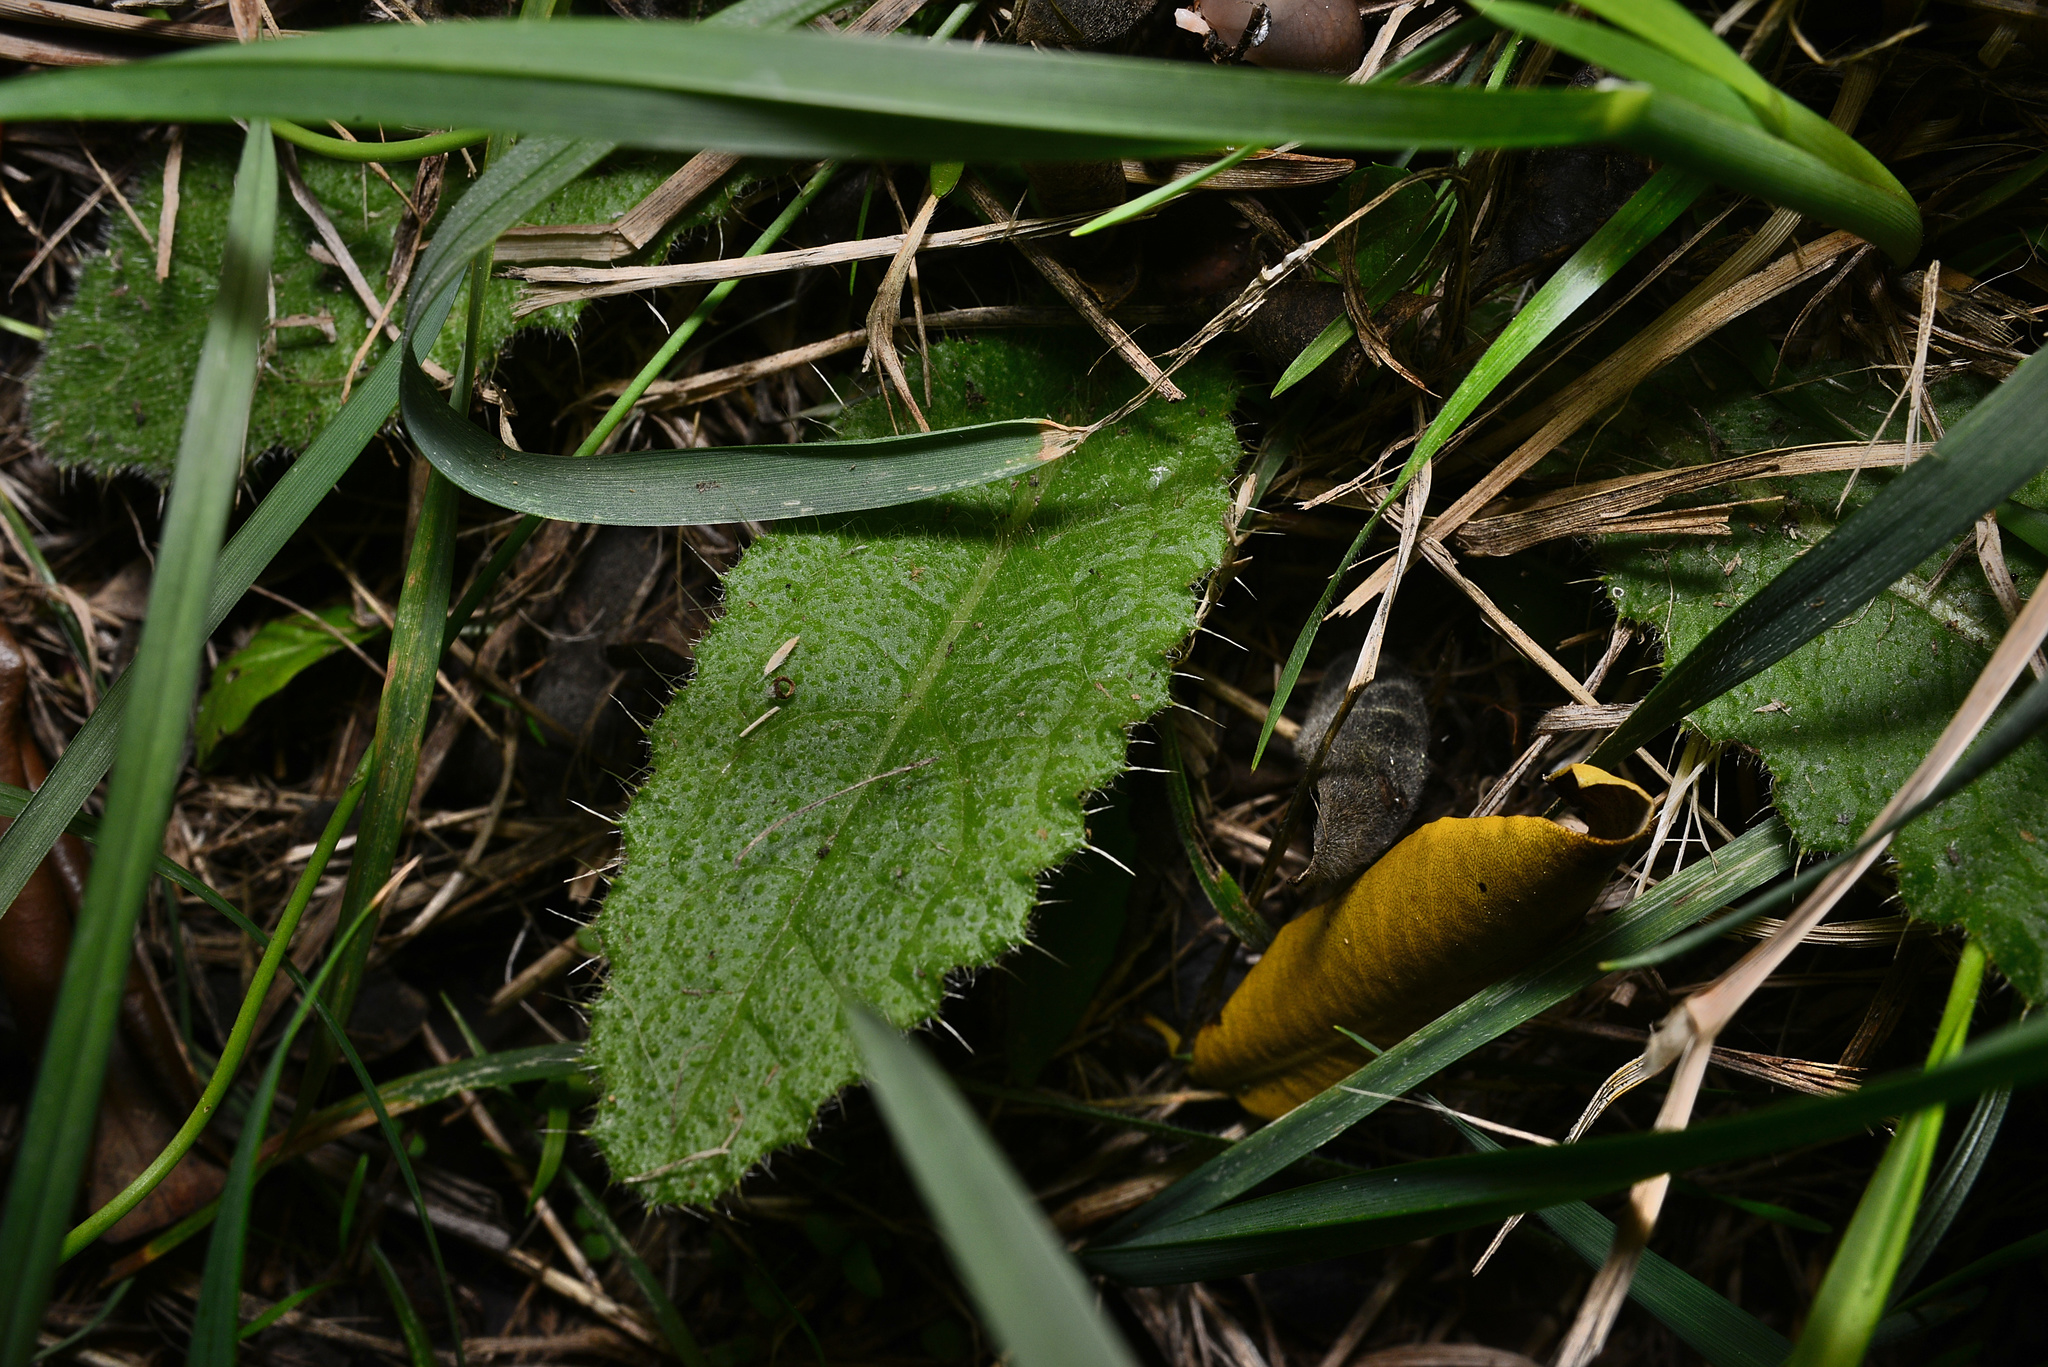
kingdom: Plantae
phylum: Tracheophyta
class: Magnoliopsida
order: Asterales
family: Asteraceae
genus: Cirsium
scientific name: Cirsium vulgare
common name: Bull thistle
